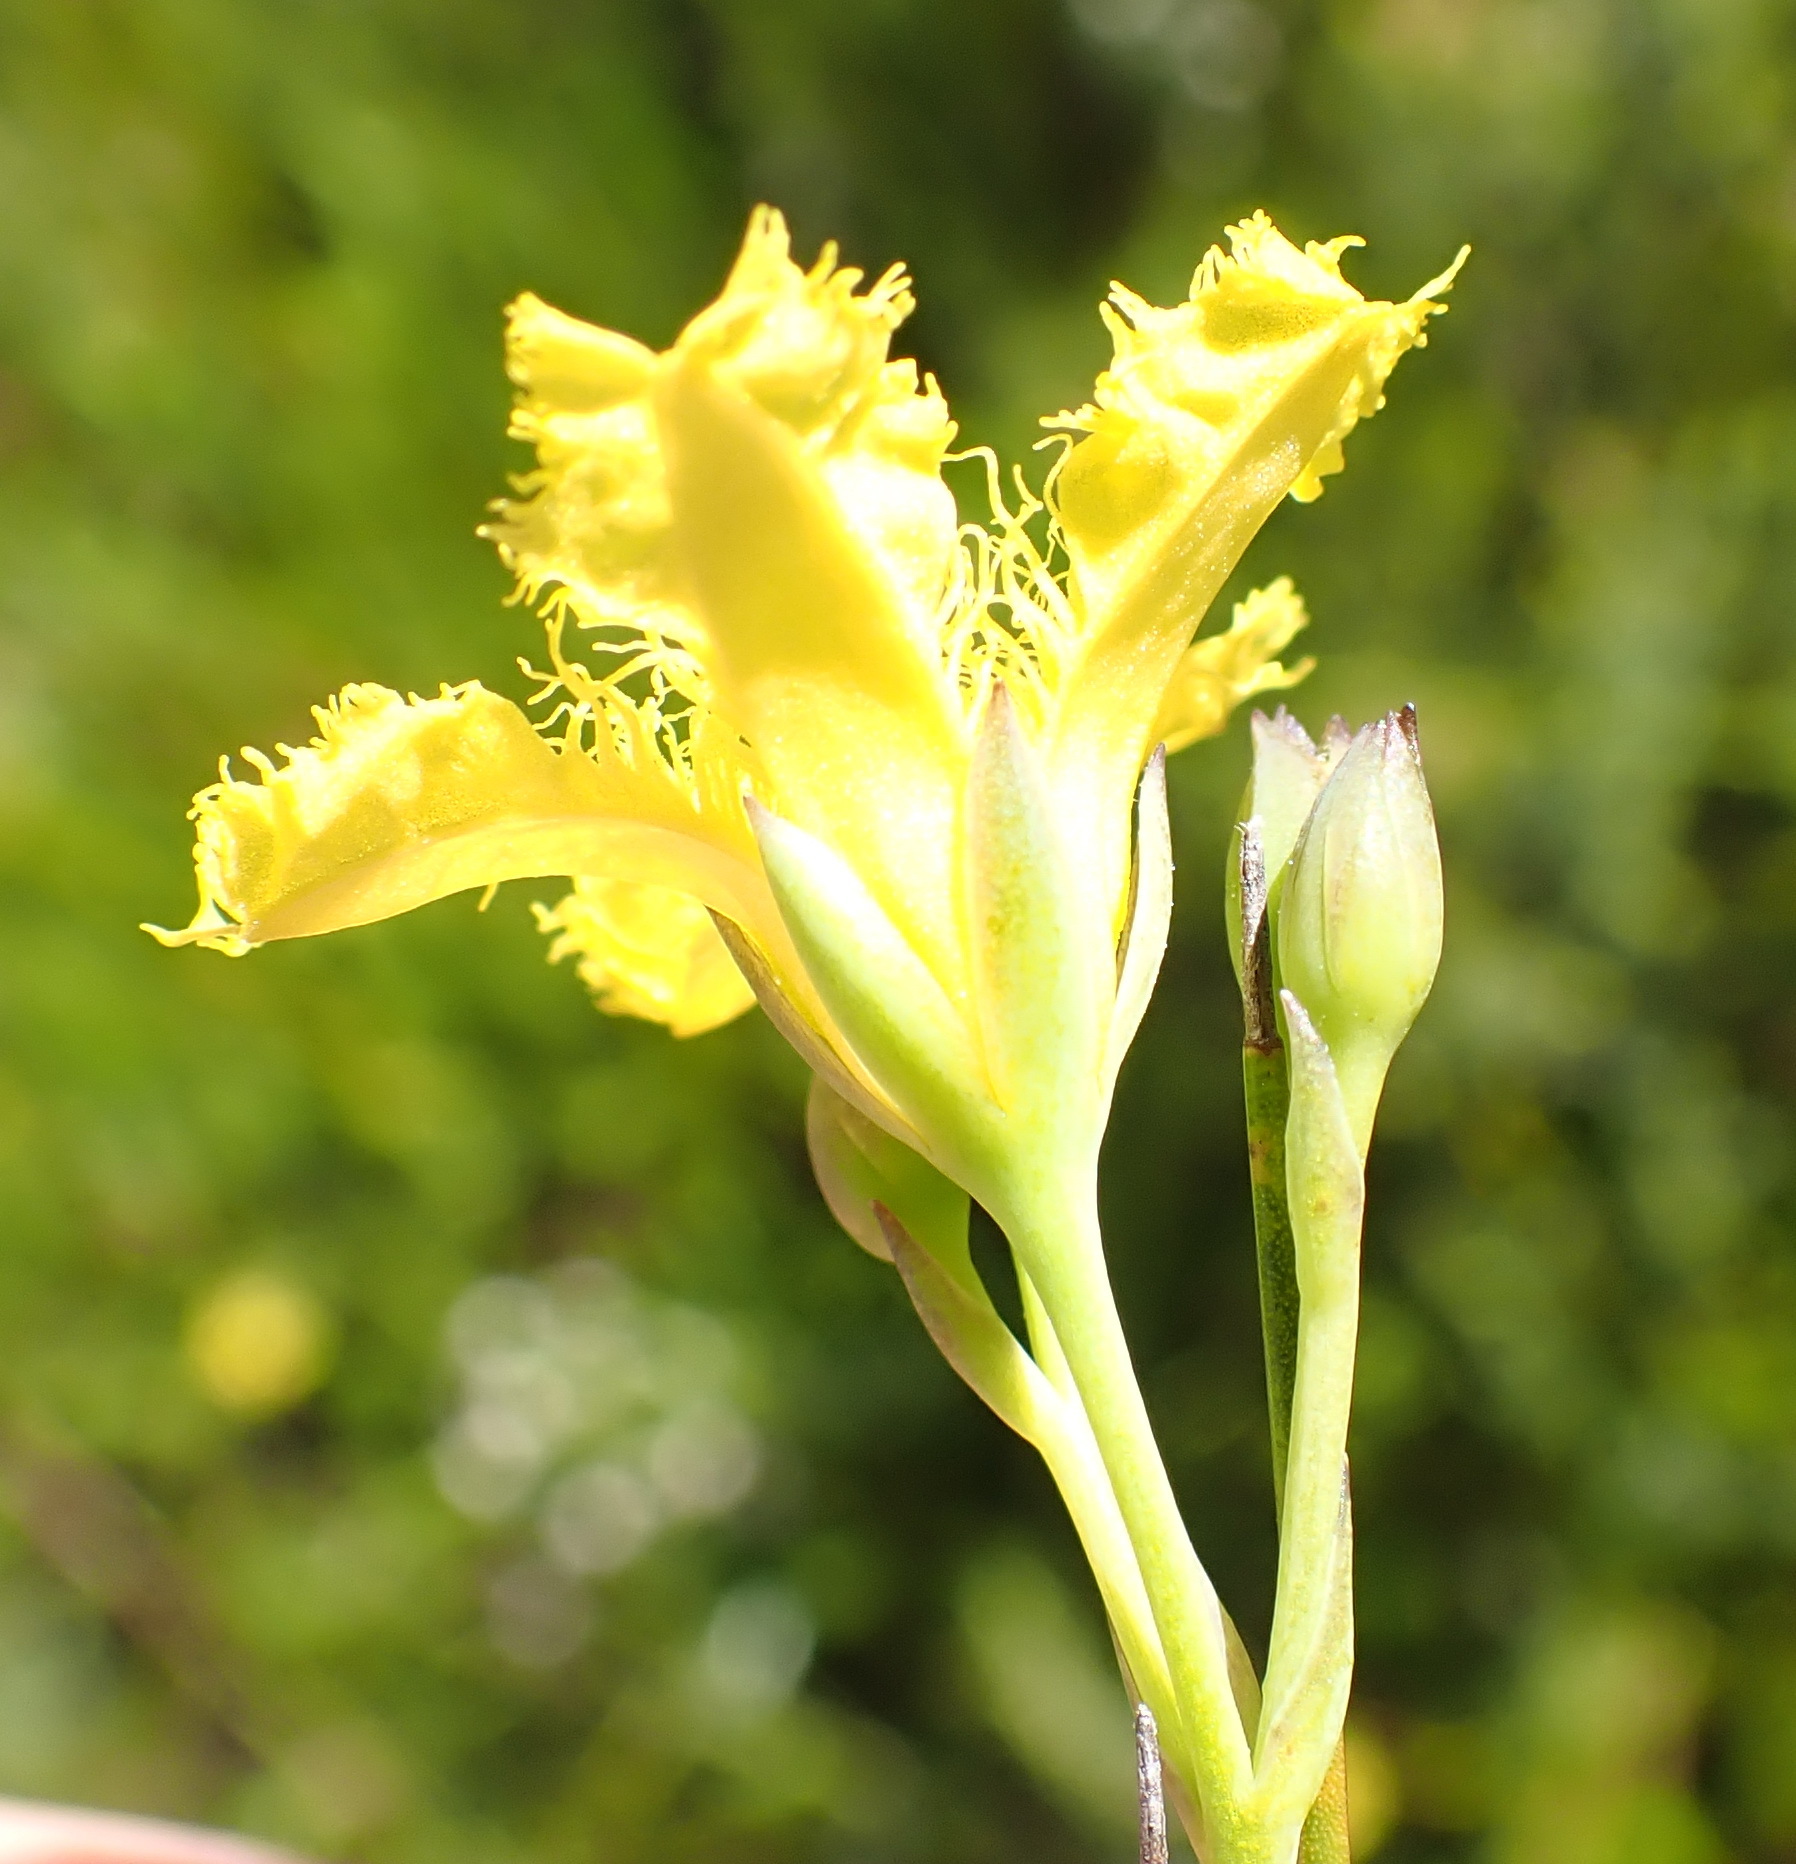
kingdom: Plantae
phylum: Tracheophyta
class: Magnoliopsida
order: Asterales
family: Menyanthaceae
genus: Villarsia
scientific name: Villarsia capensis
